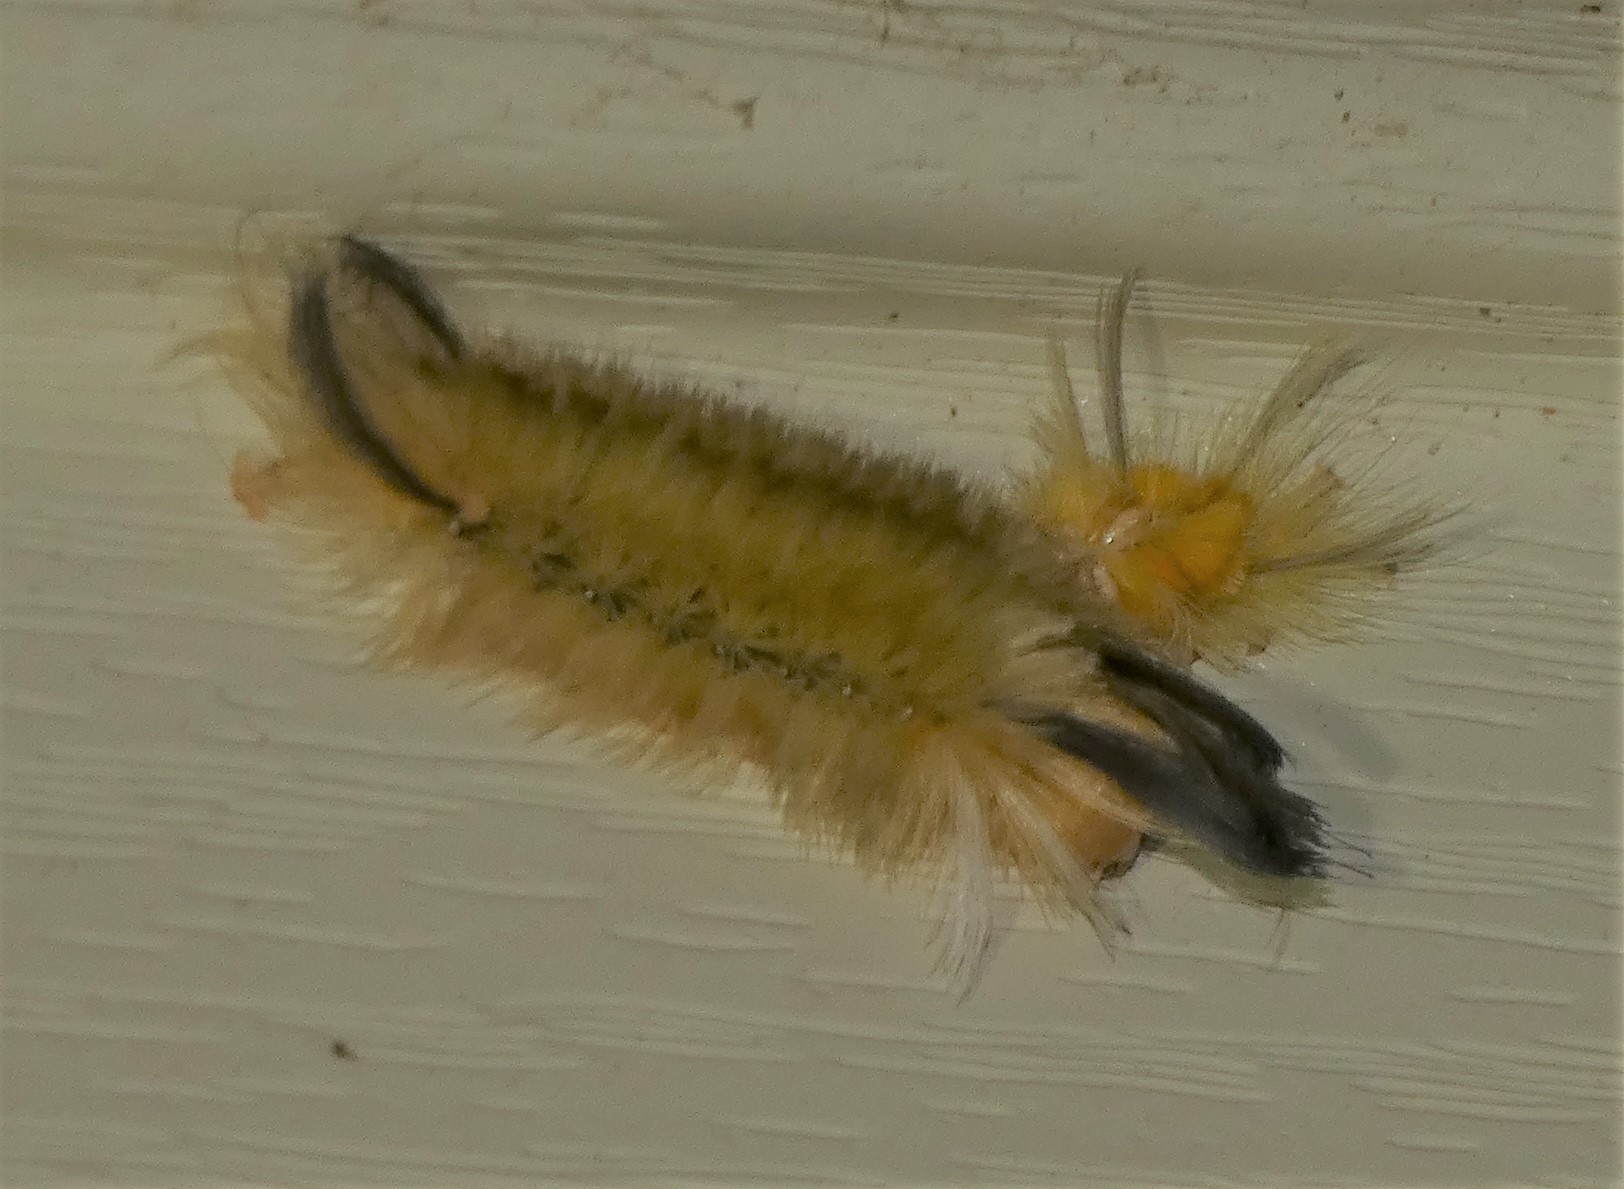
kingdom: Animalia
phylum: Arthropoda
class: Insecta
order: Lepidoptera
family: Erebidae
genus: Halysidota
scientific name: Halysidota tessellaris
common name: Banded tussock moth
